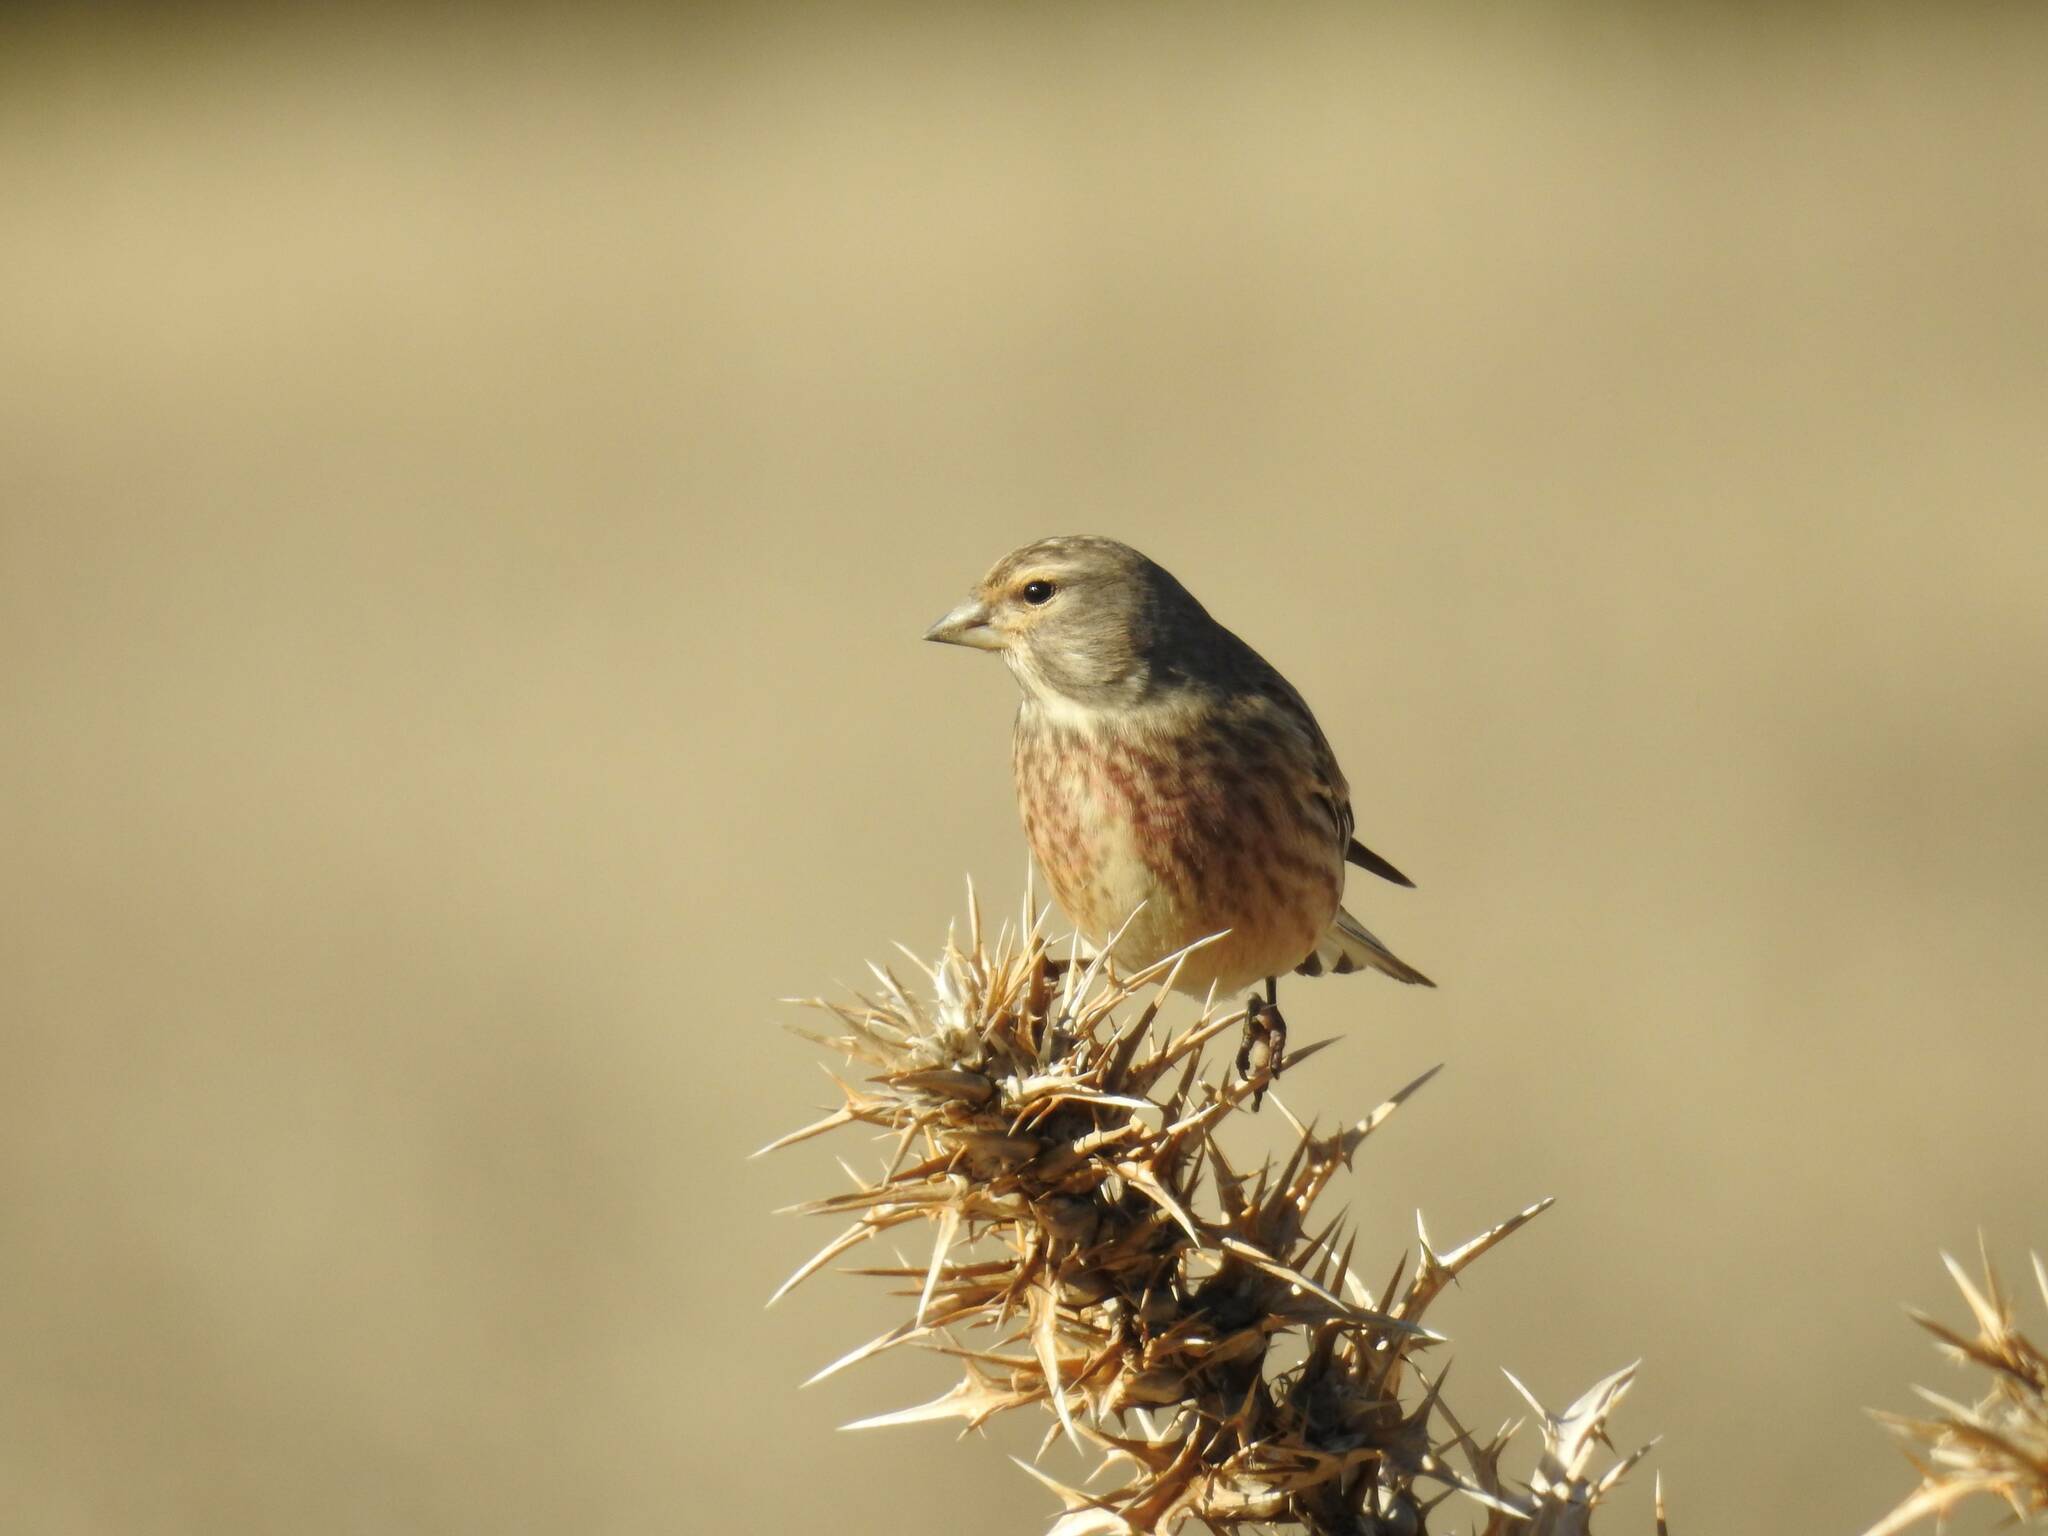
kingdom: Animalia
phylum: Chordata
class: Aves
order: Passeriformes
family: Fringillidae
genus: Linaria
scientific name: Linaria cannabina
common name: Common linnet
